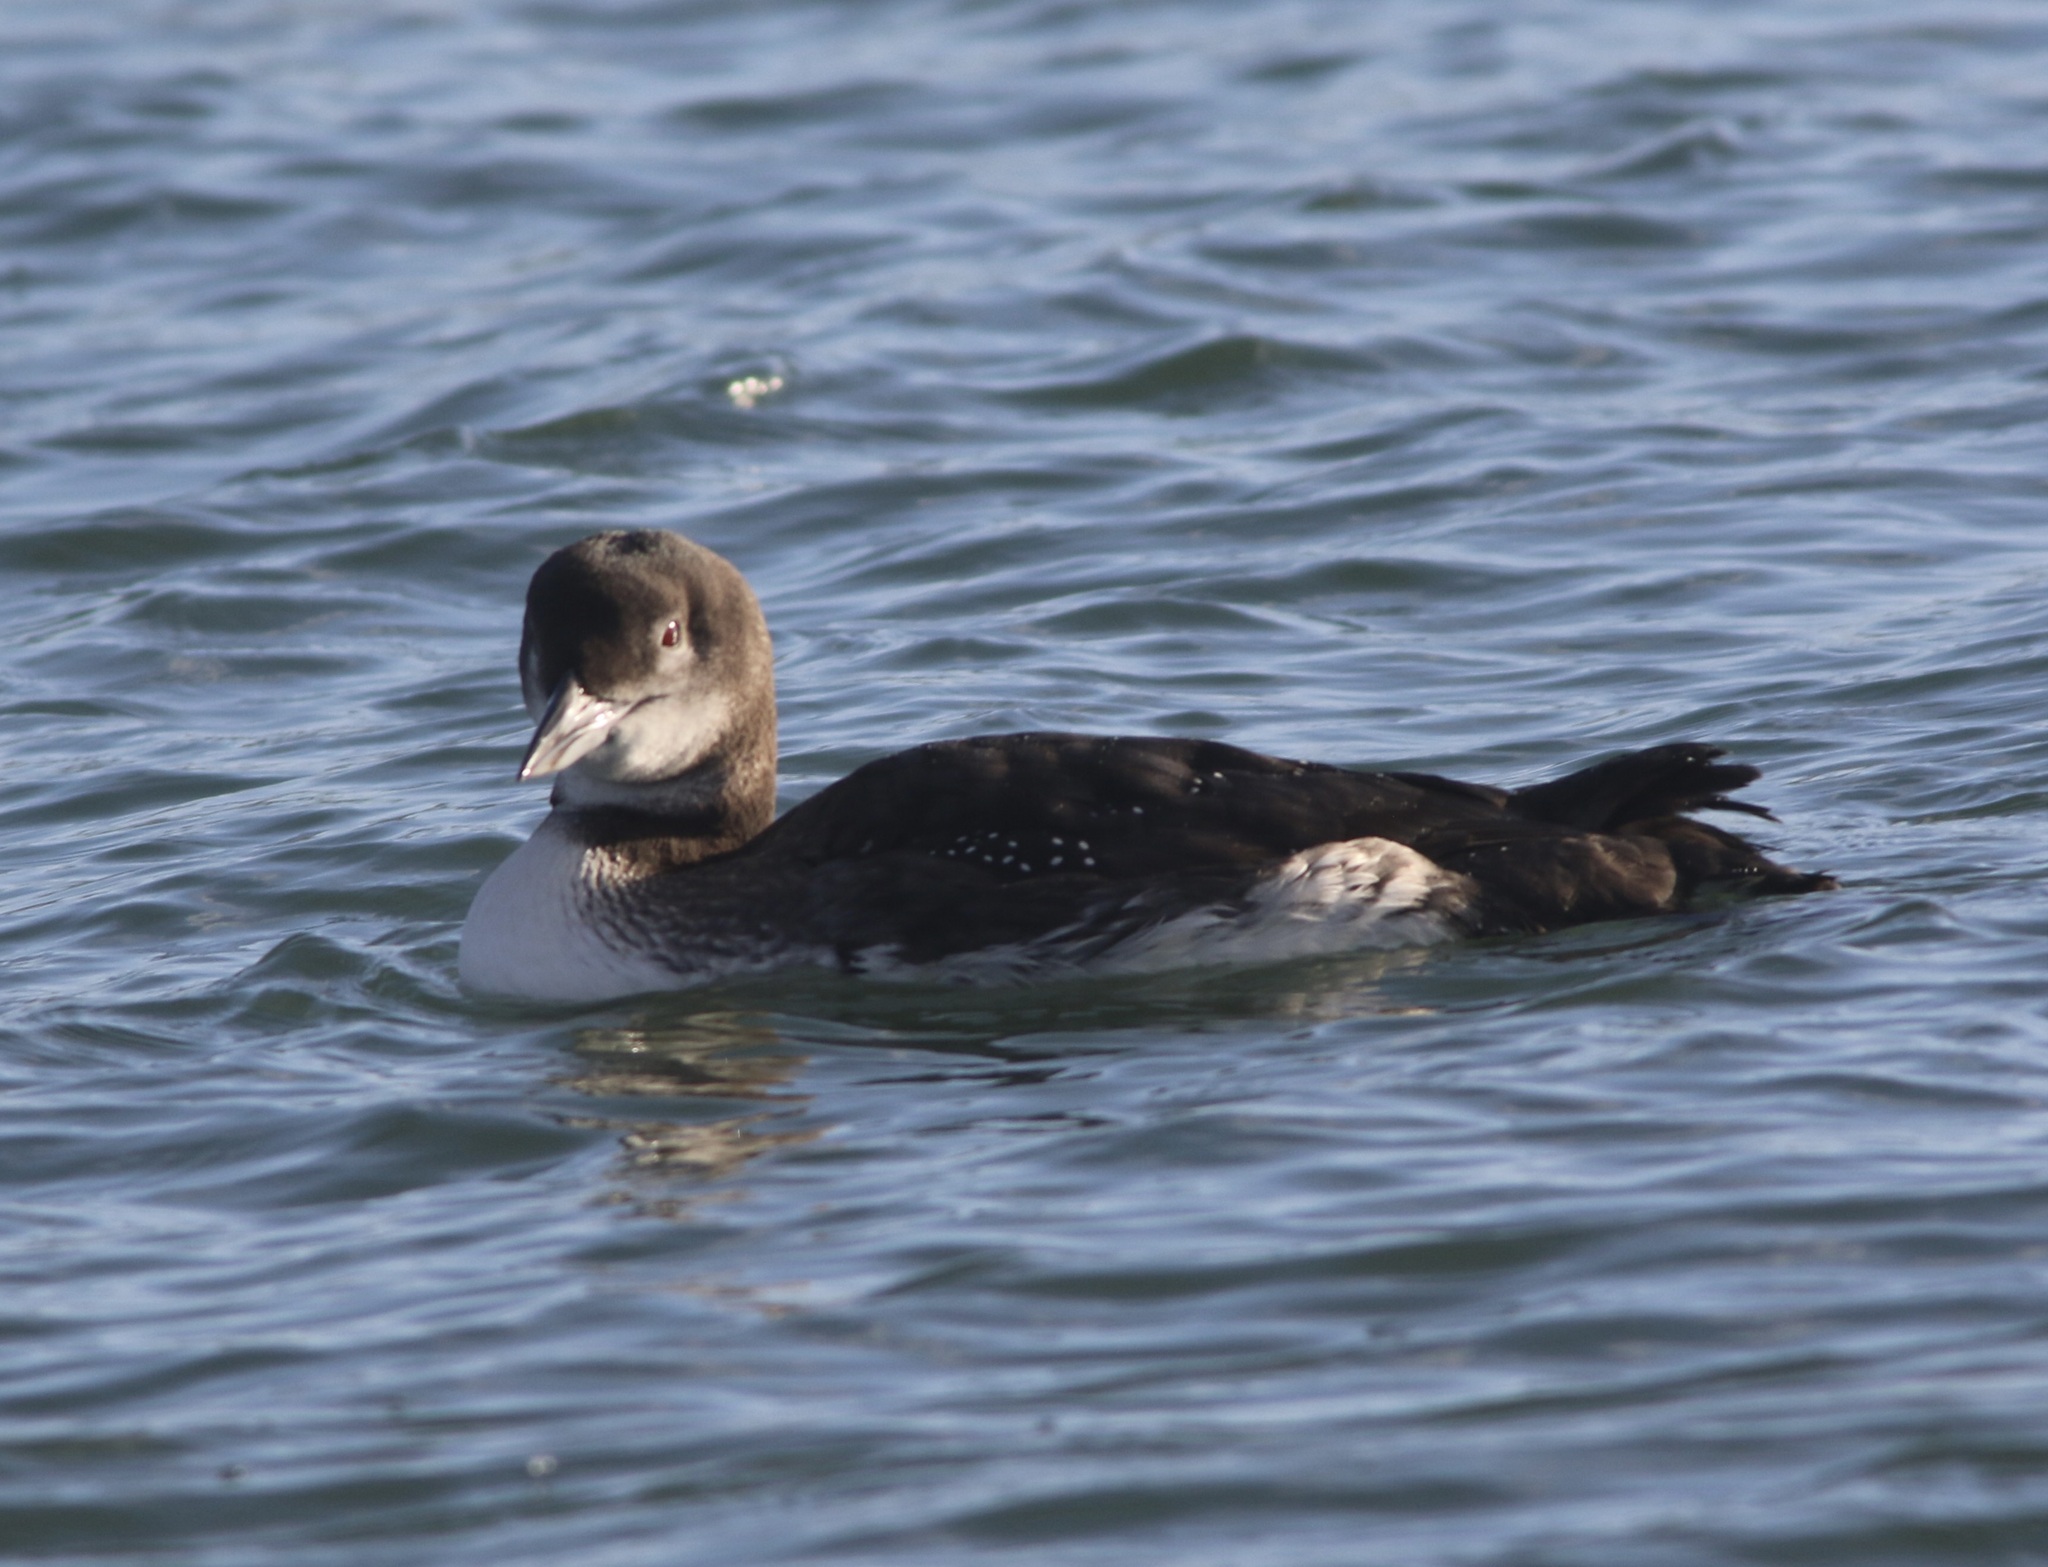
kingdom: Animalia
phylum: Chordata
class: Aves
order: Gaviiformes
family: Gaviidae
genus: Gavia
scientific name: Gavia immer
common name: Common loon
